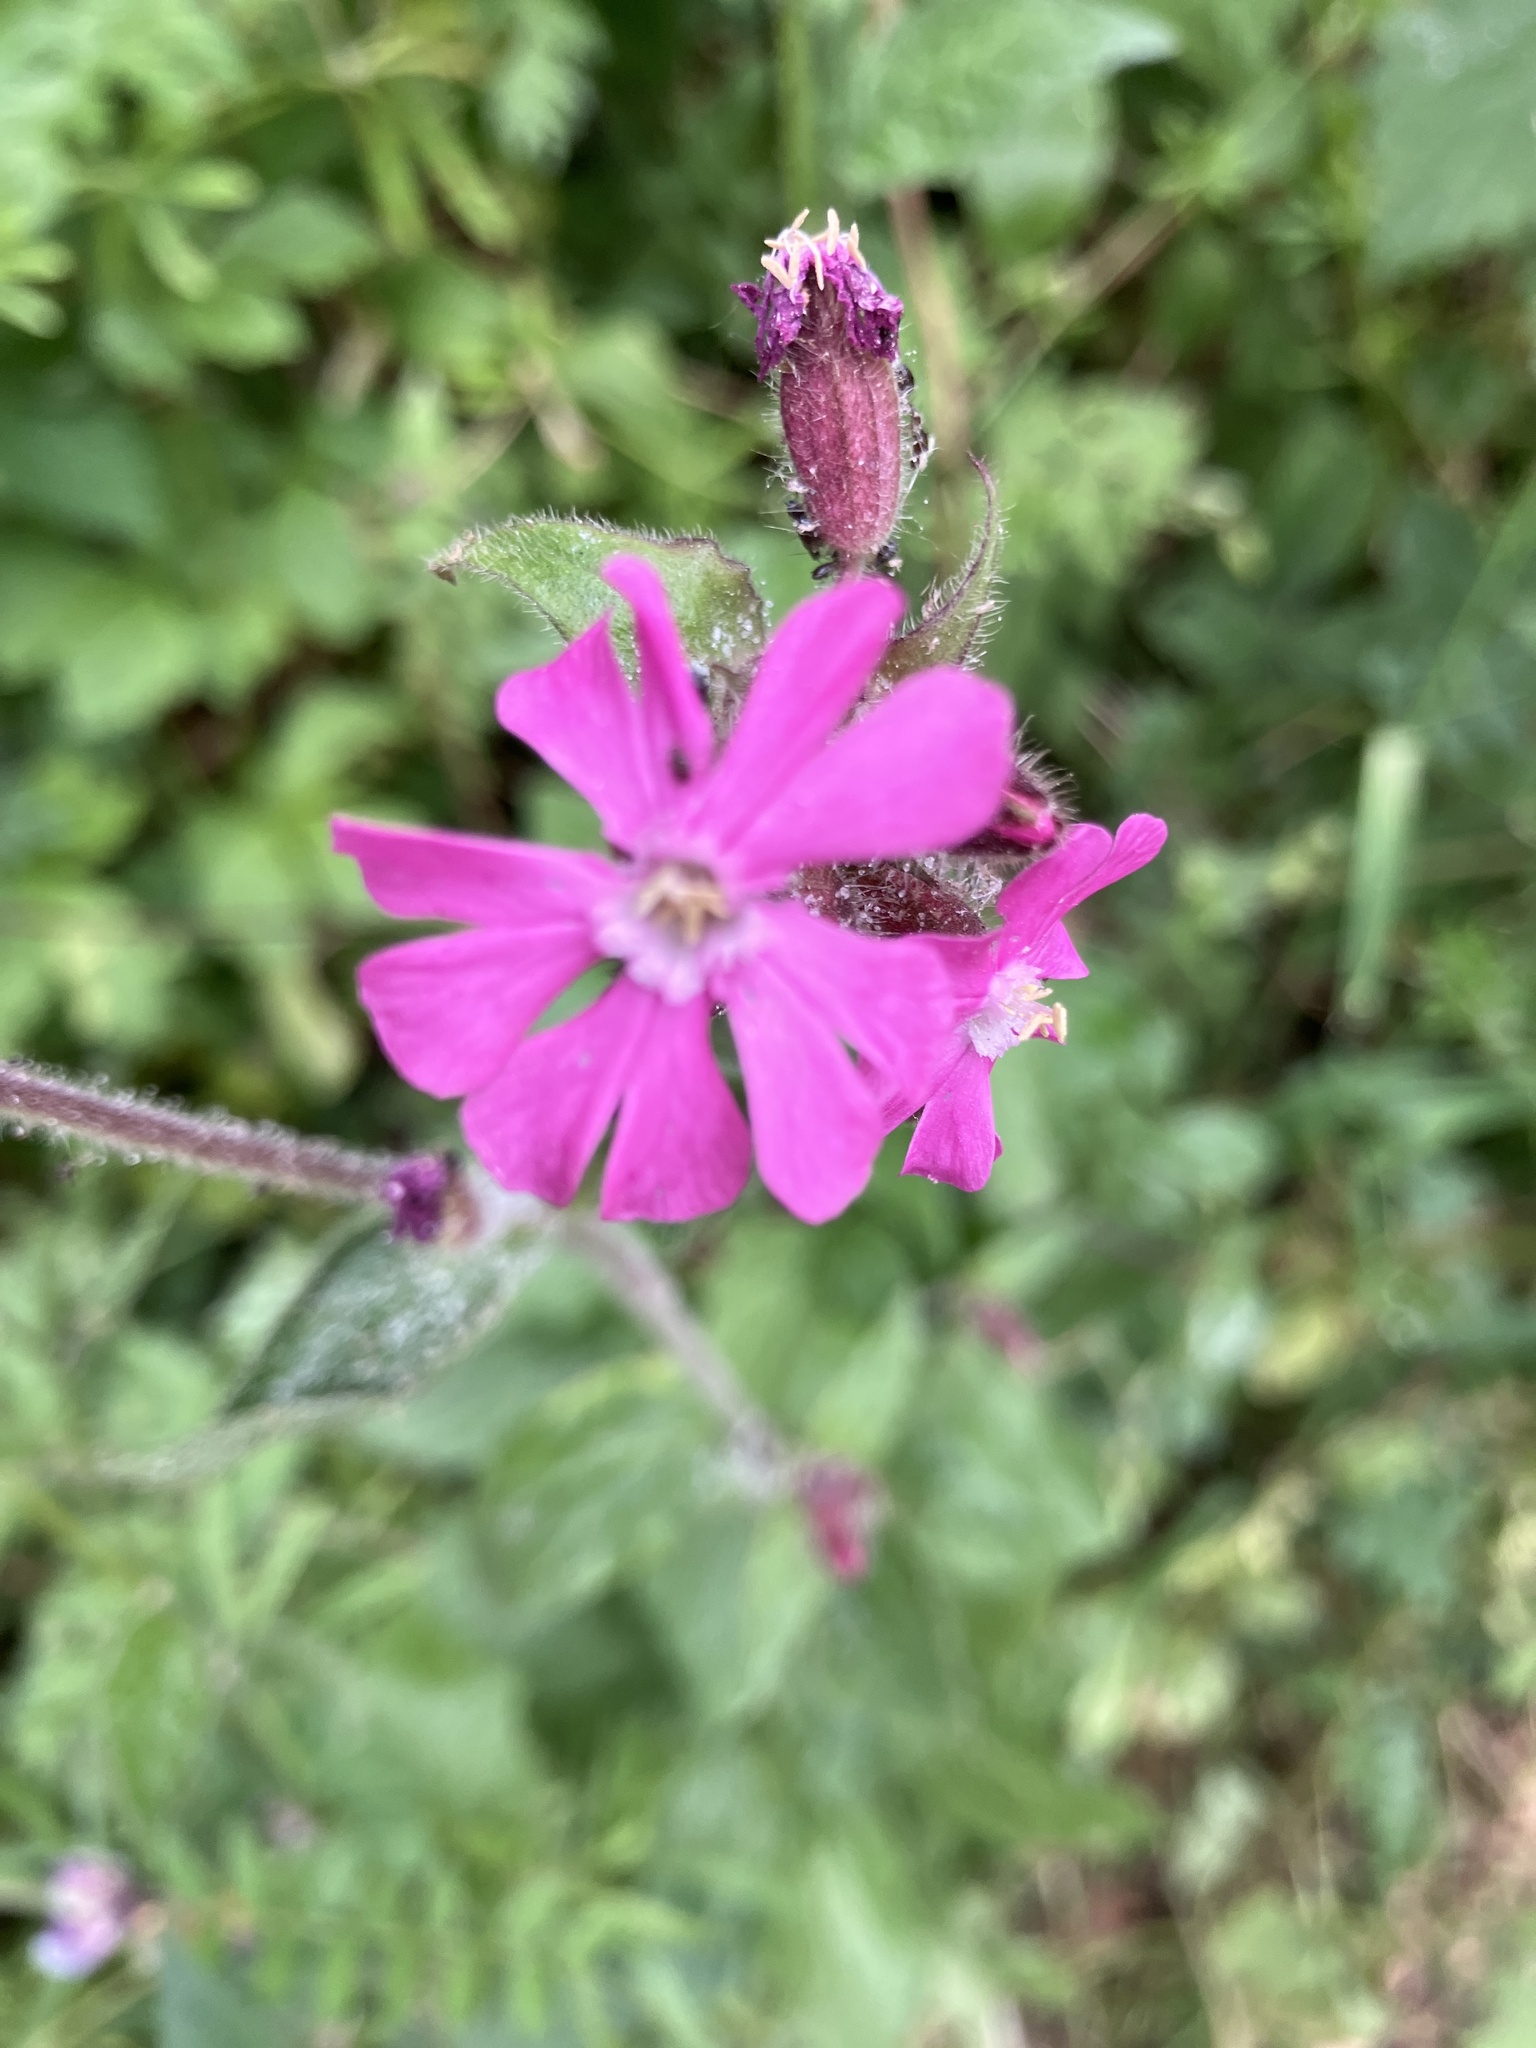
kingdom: Plantae
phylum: Tracheophyta
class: Magnoliopsida
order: Caryophyllales
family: Caryophyllaceae
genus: Silene
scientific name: Silene dioica
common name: Red campion
